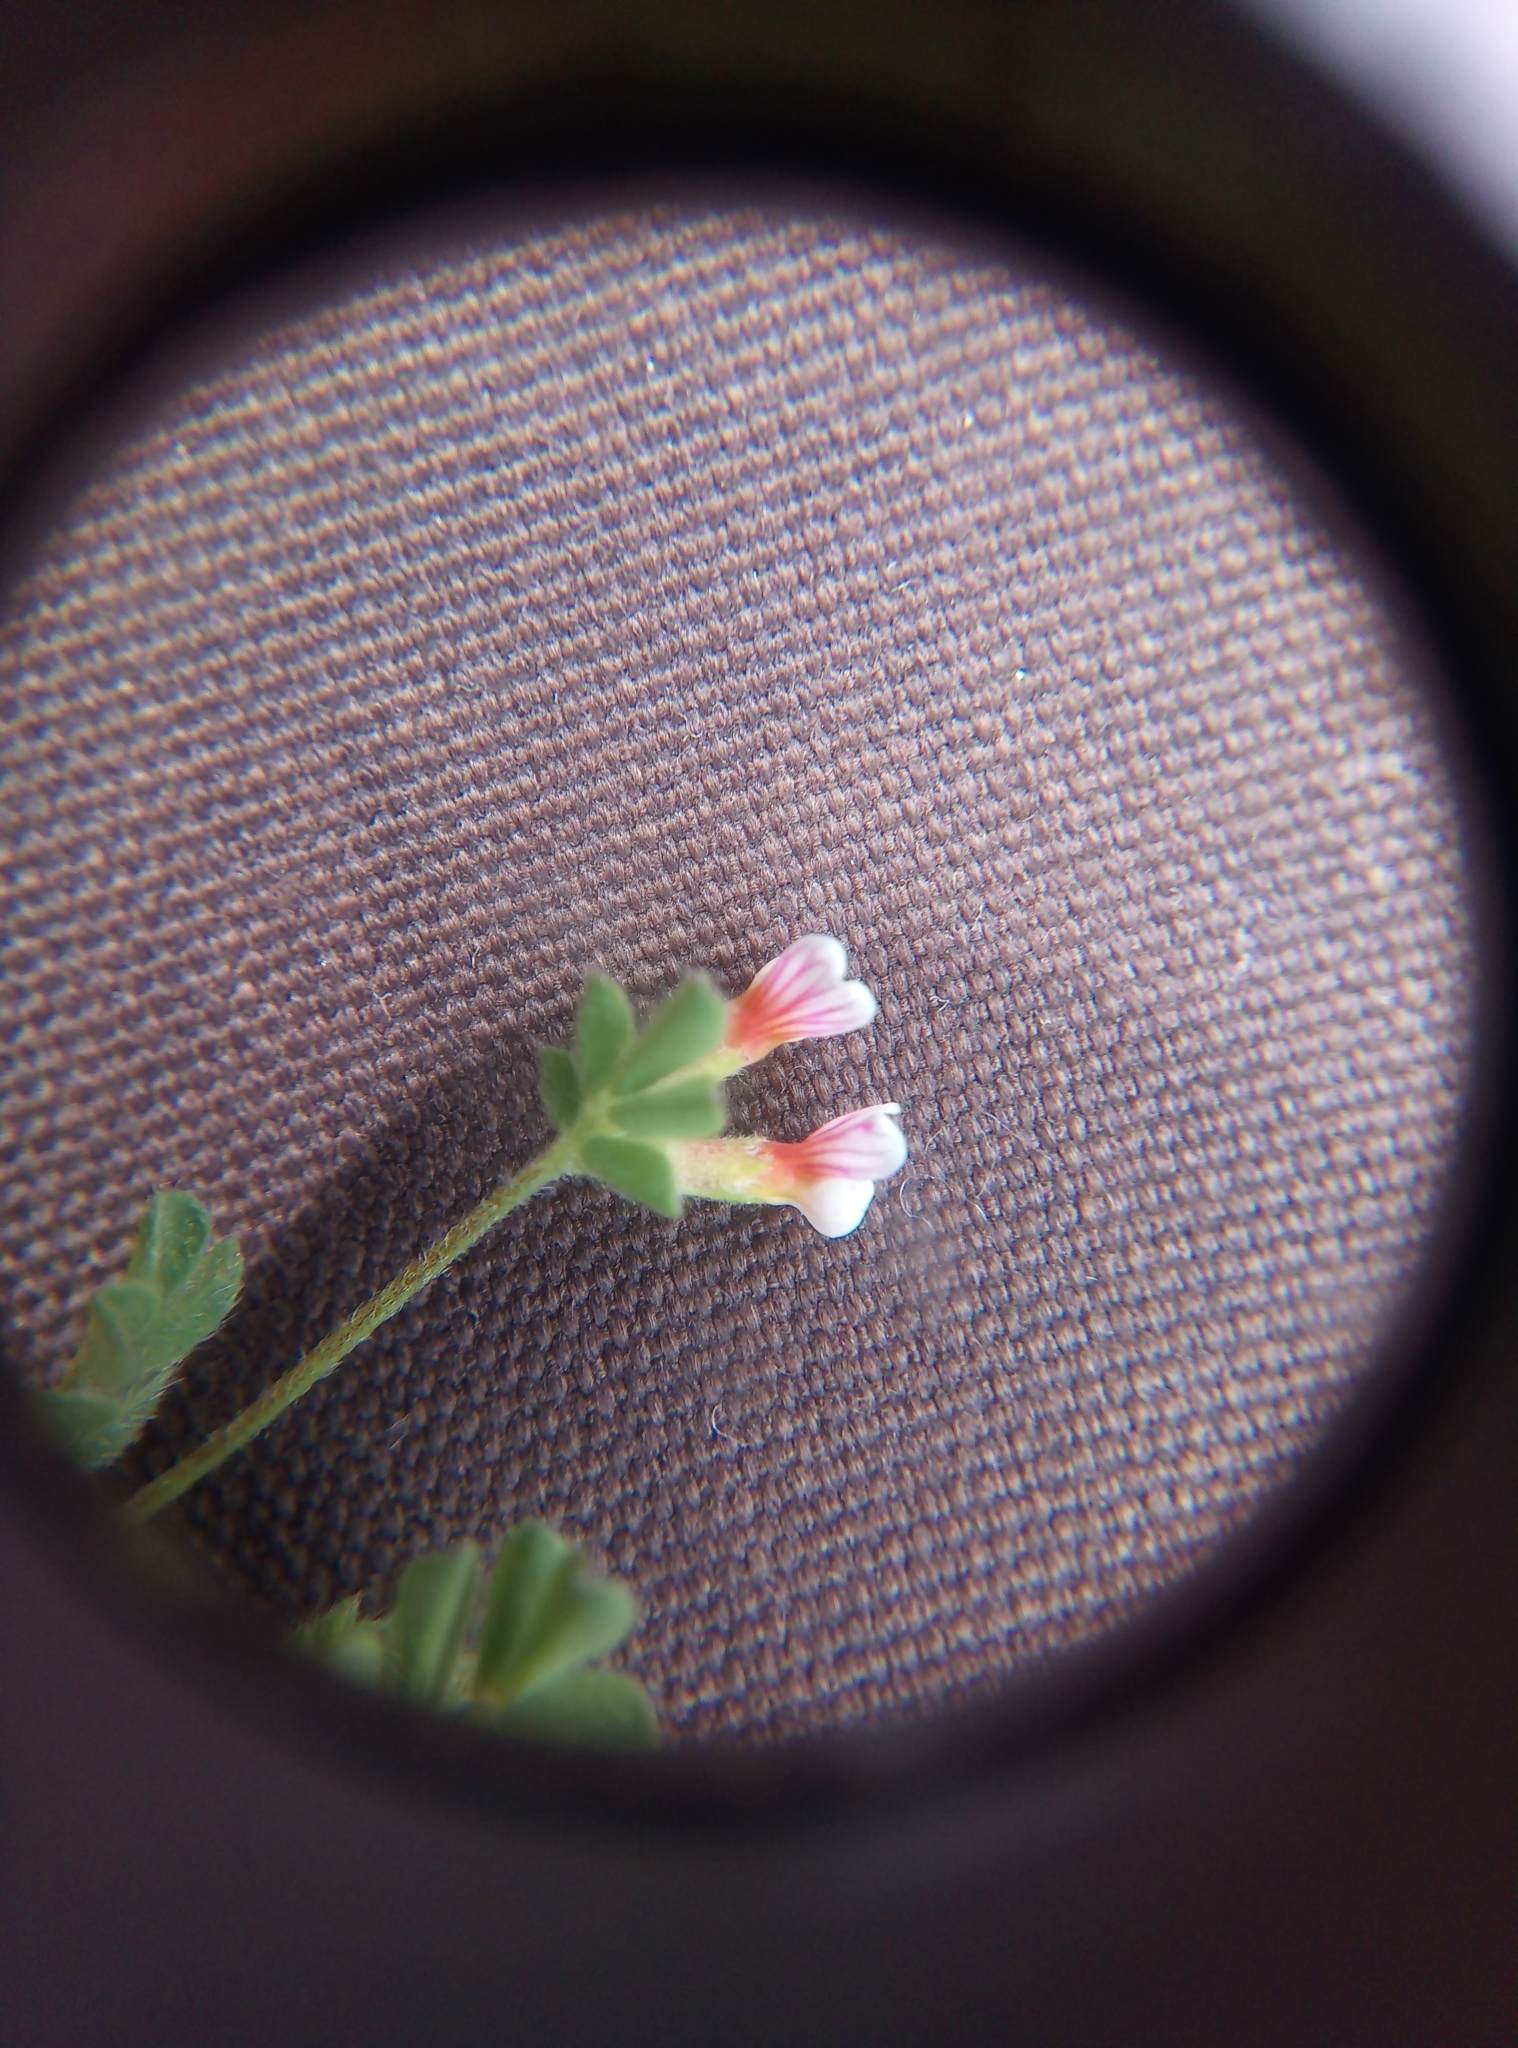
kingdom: Plantae
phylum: Tracheophyta
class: Magnoliopsida
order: Fabales
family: Fabaceae
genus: Ornithopus
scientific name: Ornithopus perpusillus
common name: Bird's-foot
